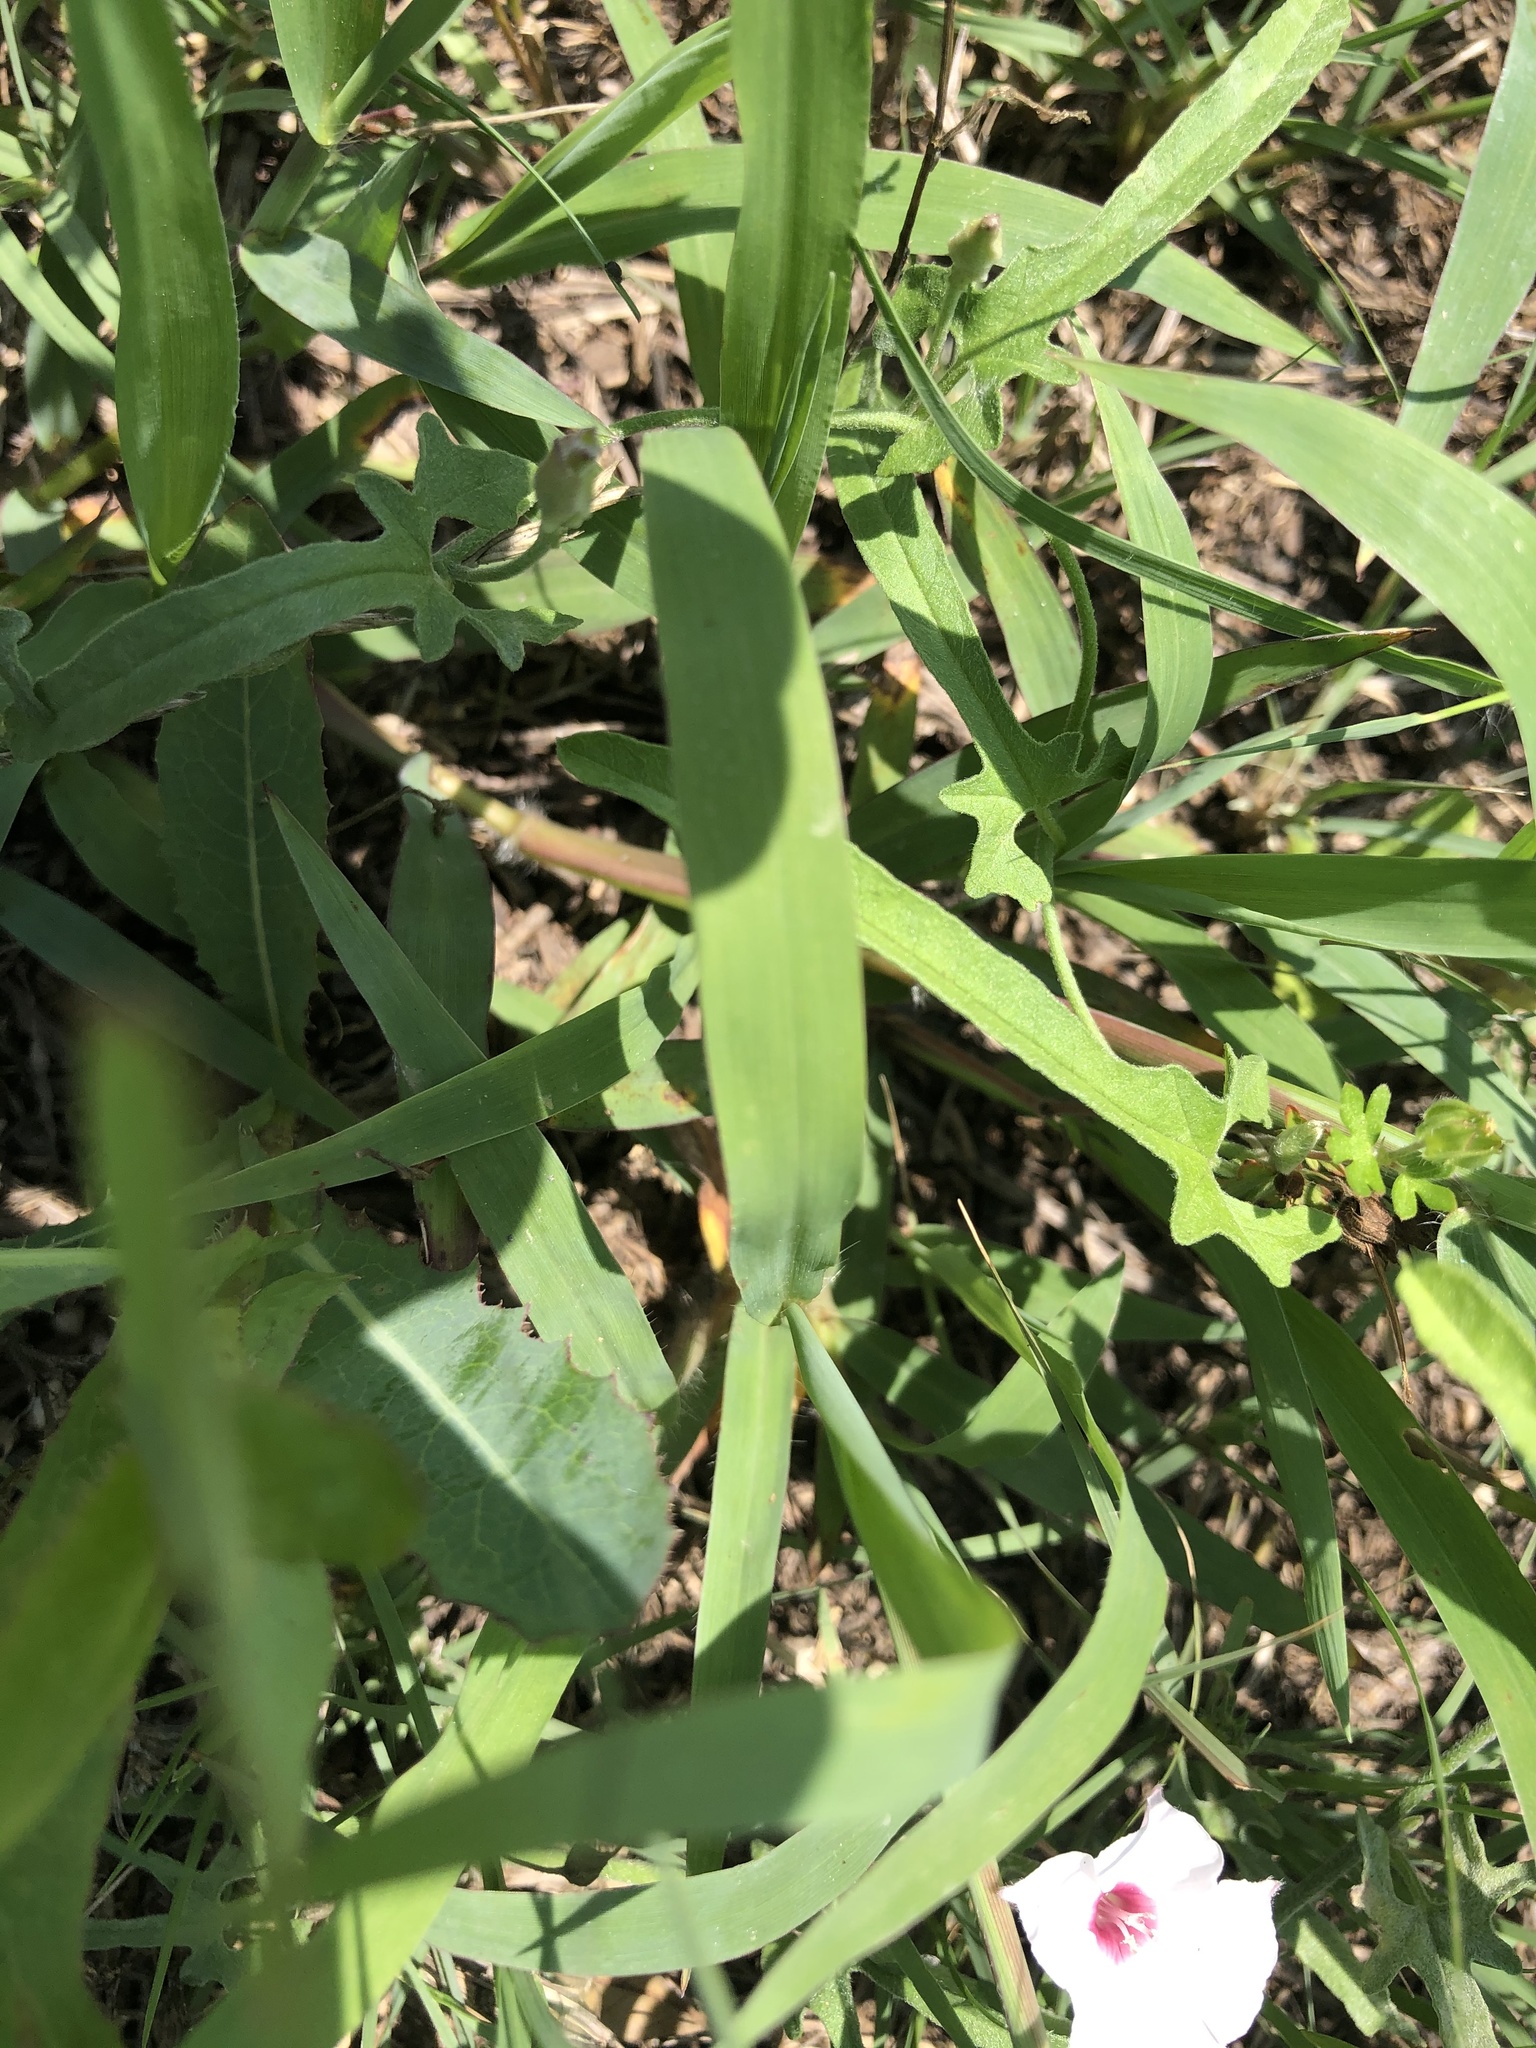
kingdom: Plantae
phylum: Tracheophyta
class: Magnoliopsida
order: Solanales
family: Convolvulaceae
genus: Convolvulus
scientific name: Convolvulus equitans
